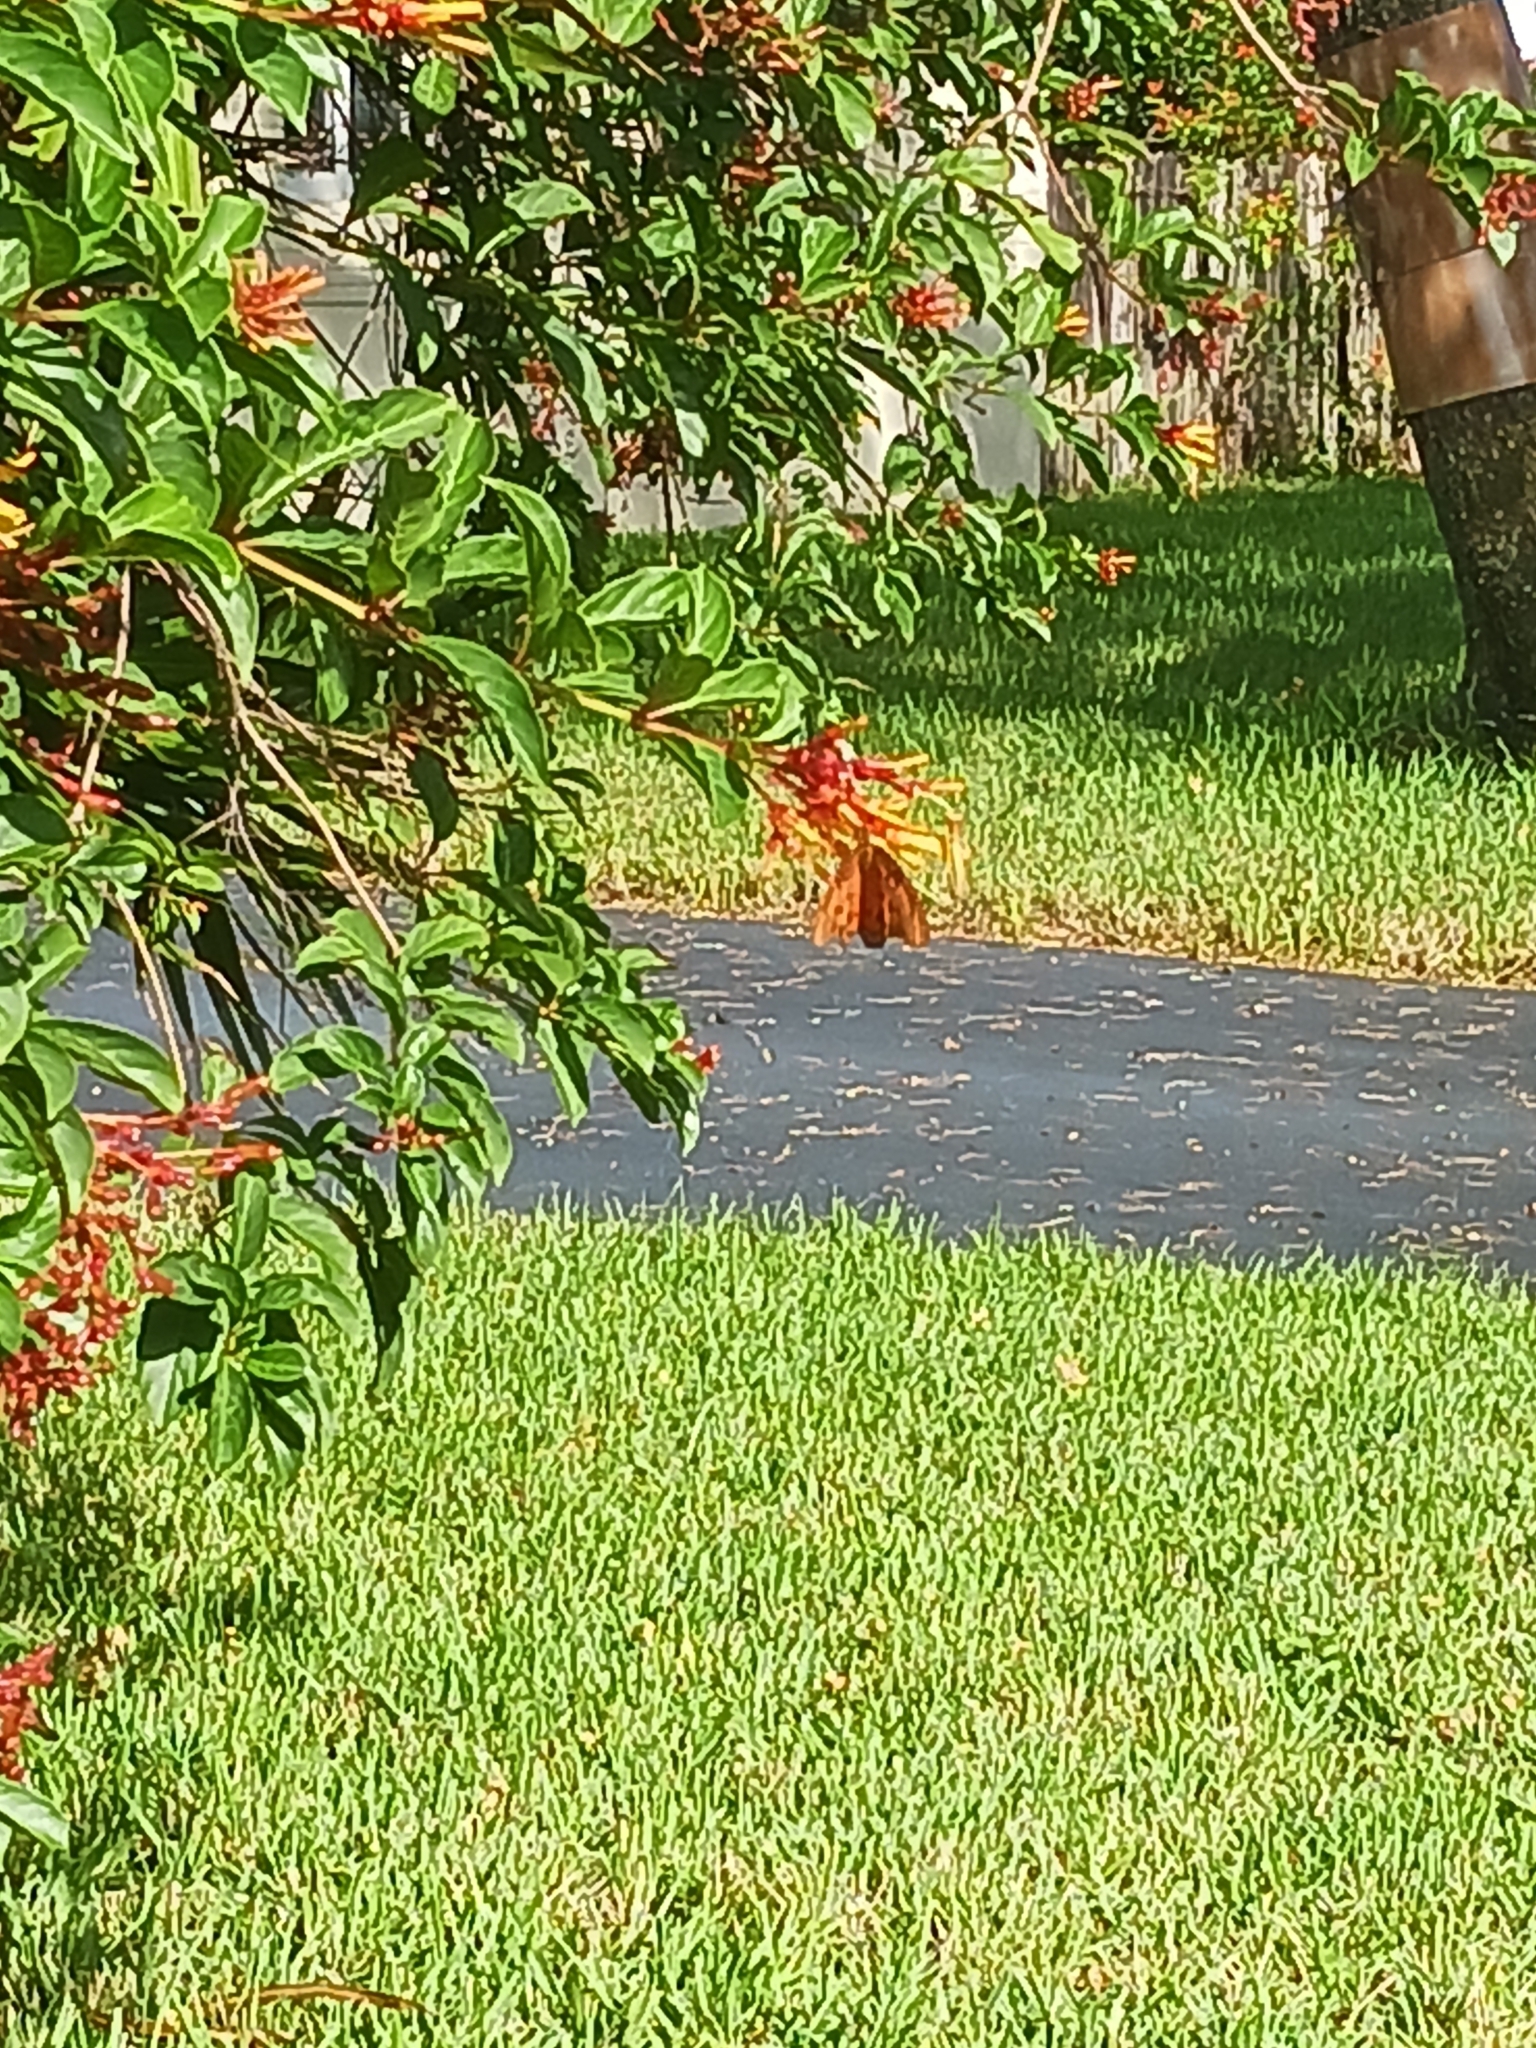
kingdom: Animalia
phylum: Arthropoda
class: Insecta
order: Lepidoptera
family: Nymphalidae
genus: Dione
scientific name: Dione vanillae
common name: Gulf fritillary
